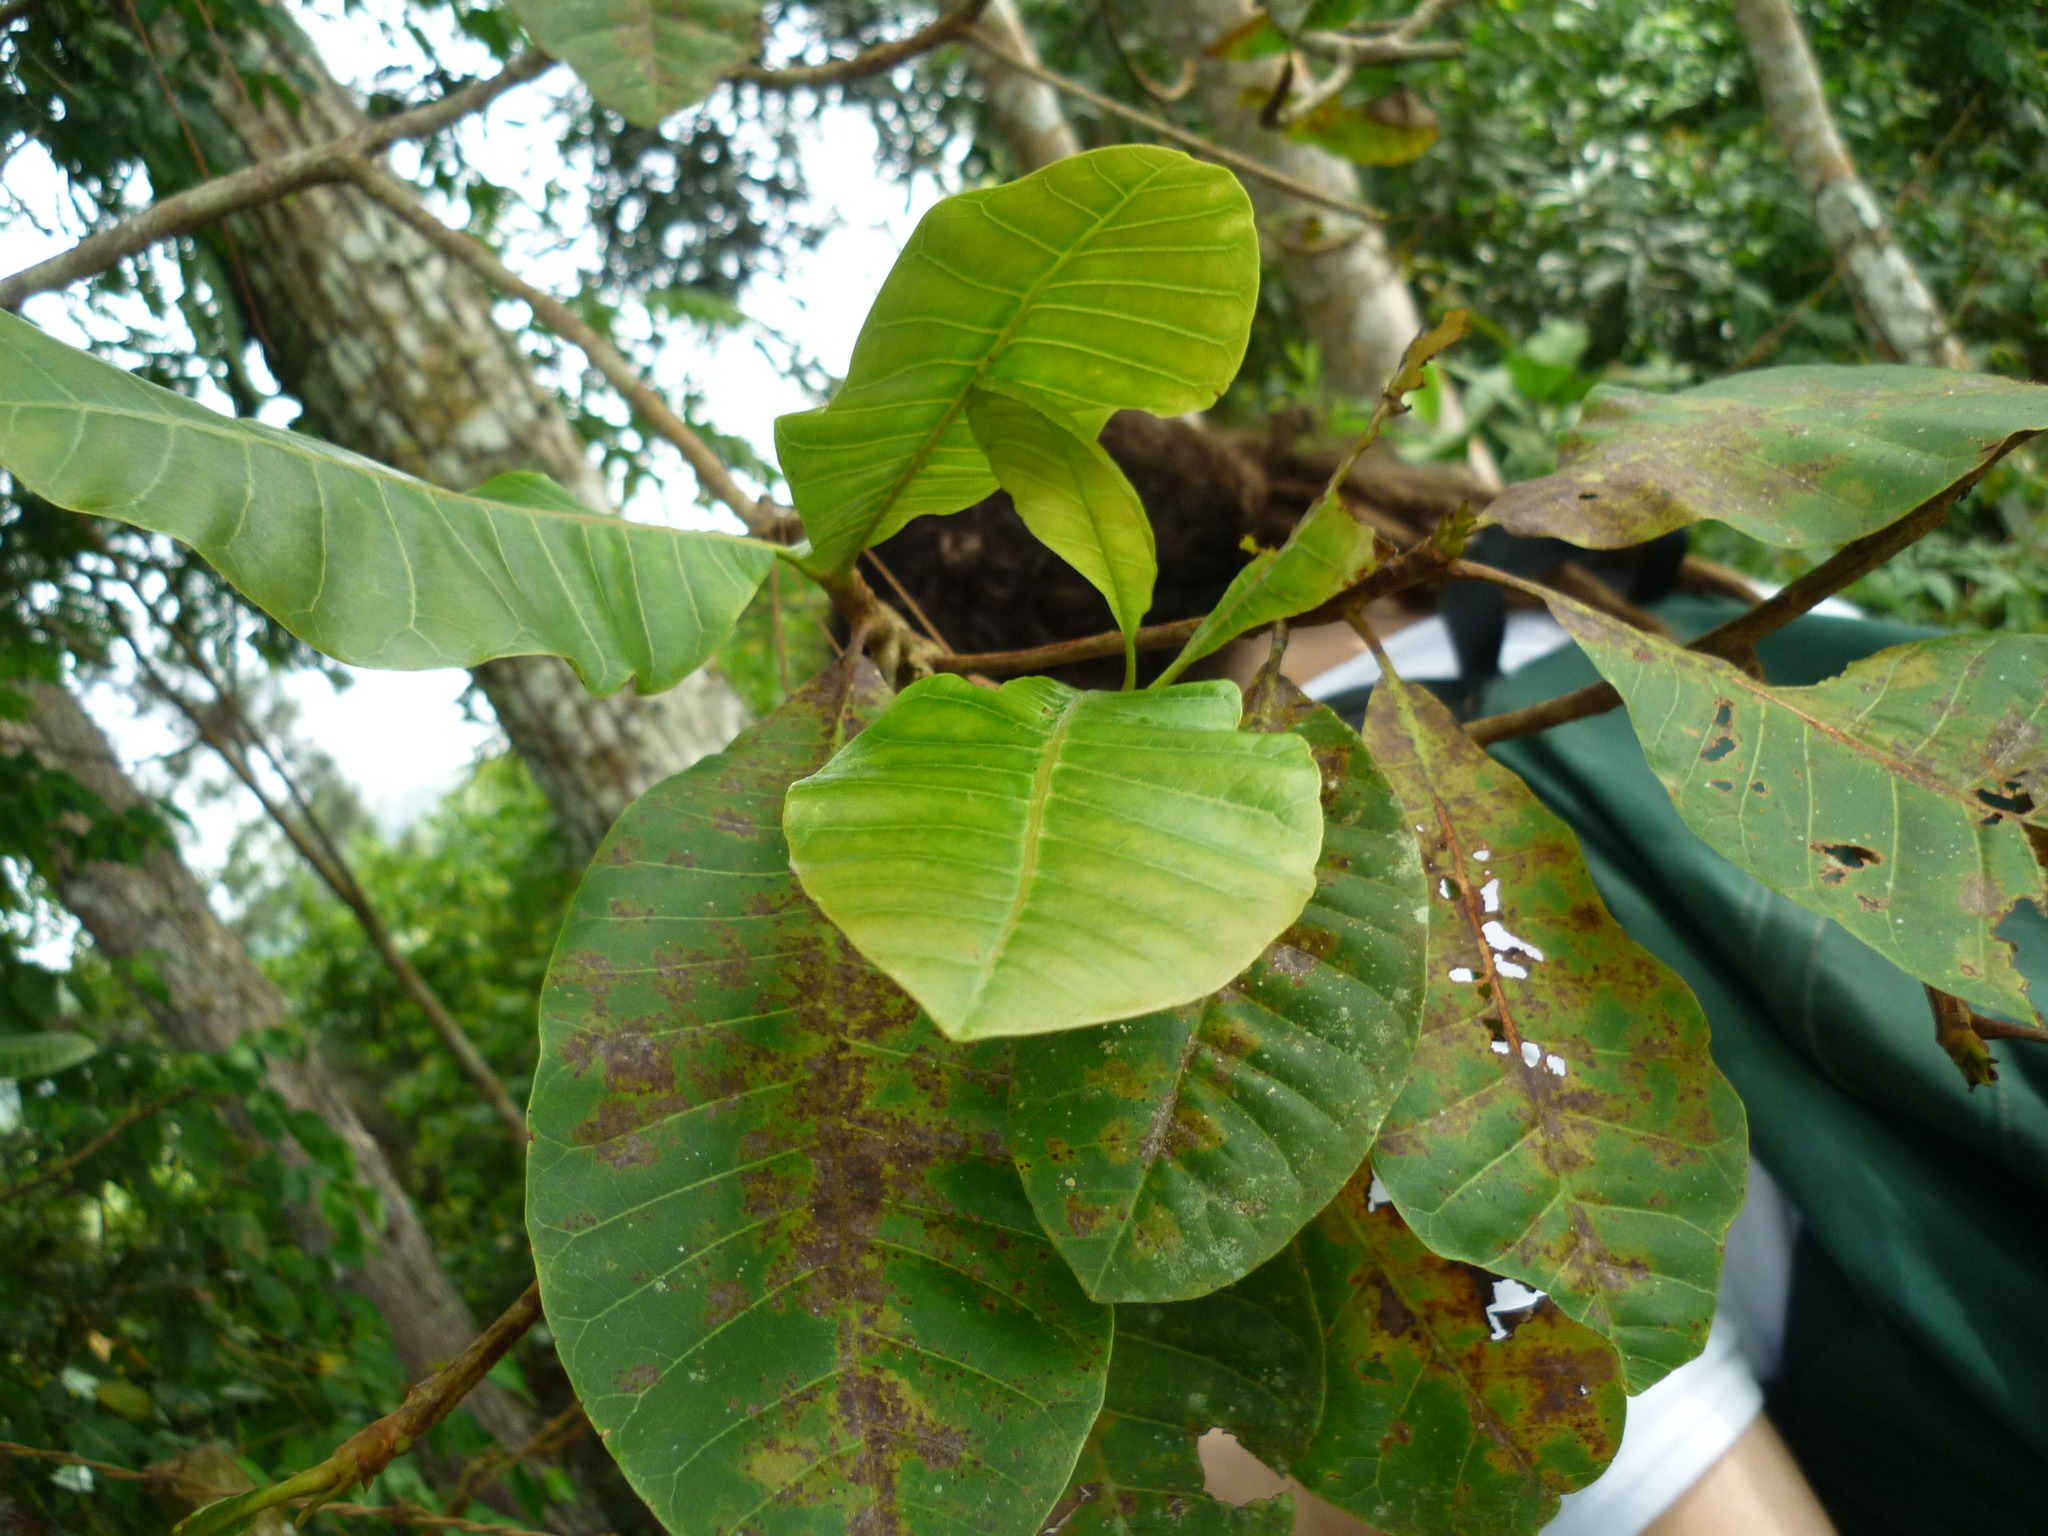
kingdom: Plantae
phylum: Tracheophyta
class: Magnoliopsida
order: Sapindales
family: Anacardiaceae
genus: Anacardium
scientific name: Anacardium occidentale
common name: Cashew
